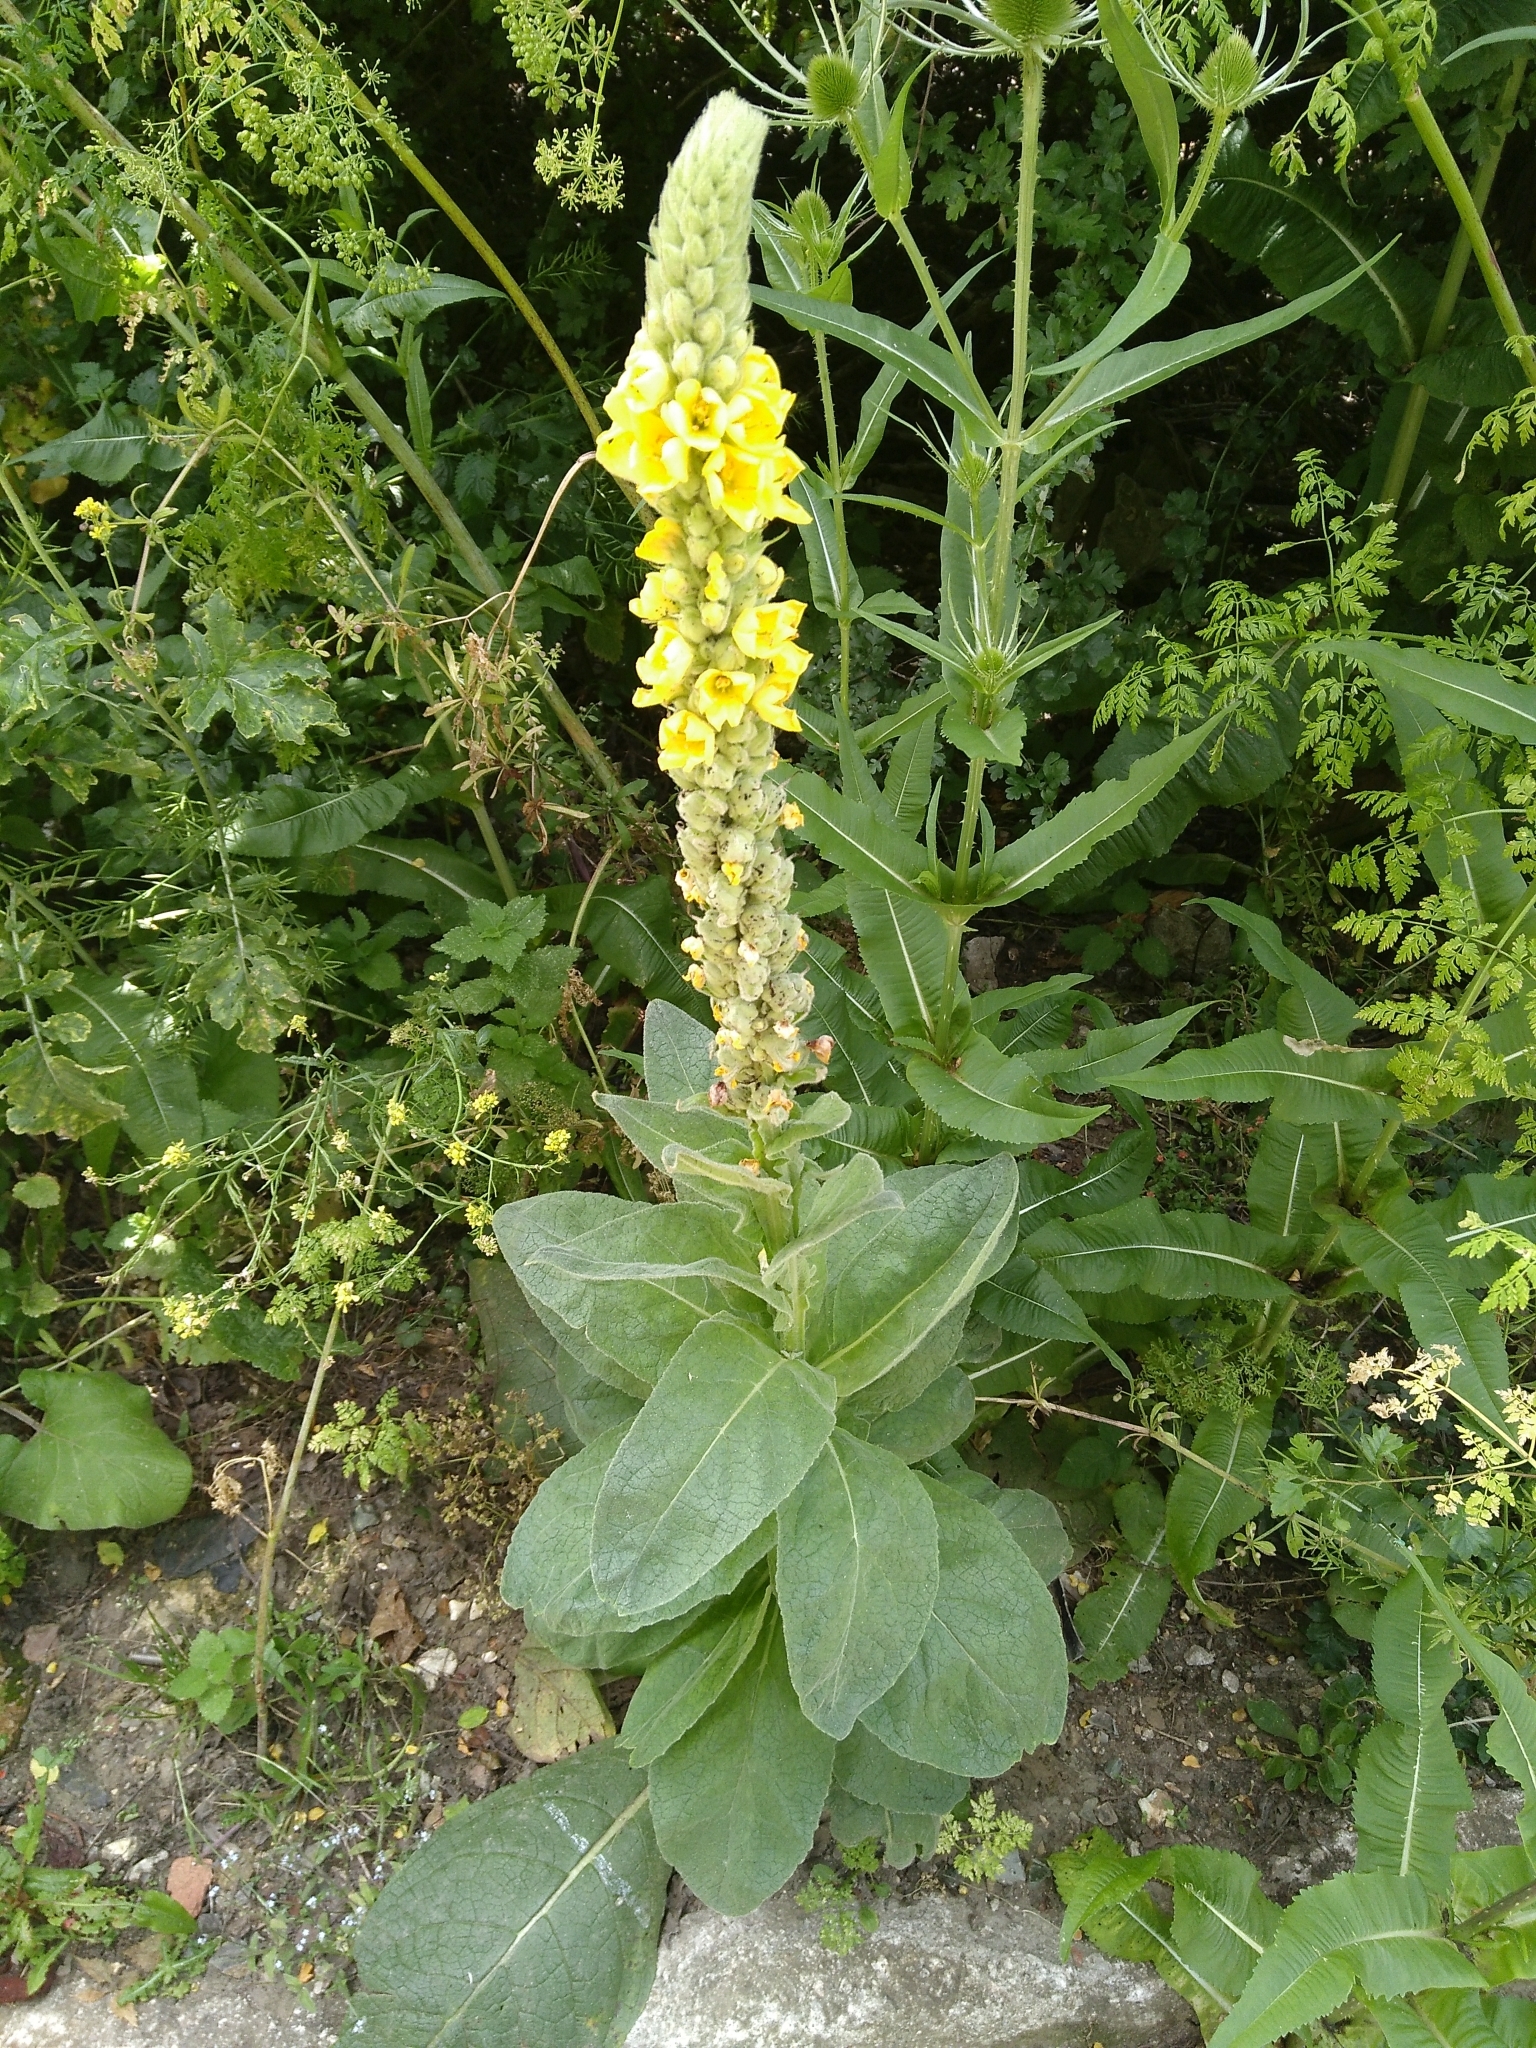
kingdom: Plantae
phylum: Tracheophyta
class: Magnoliopsida
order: Lamiales
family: Scrophulariaceae
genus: Verbascum
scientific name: Verbascum thapsus
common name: Common mullein
